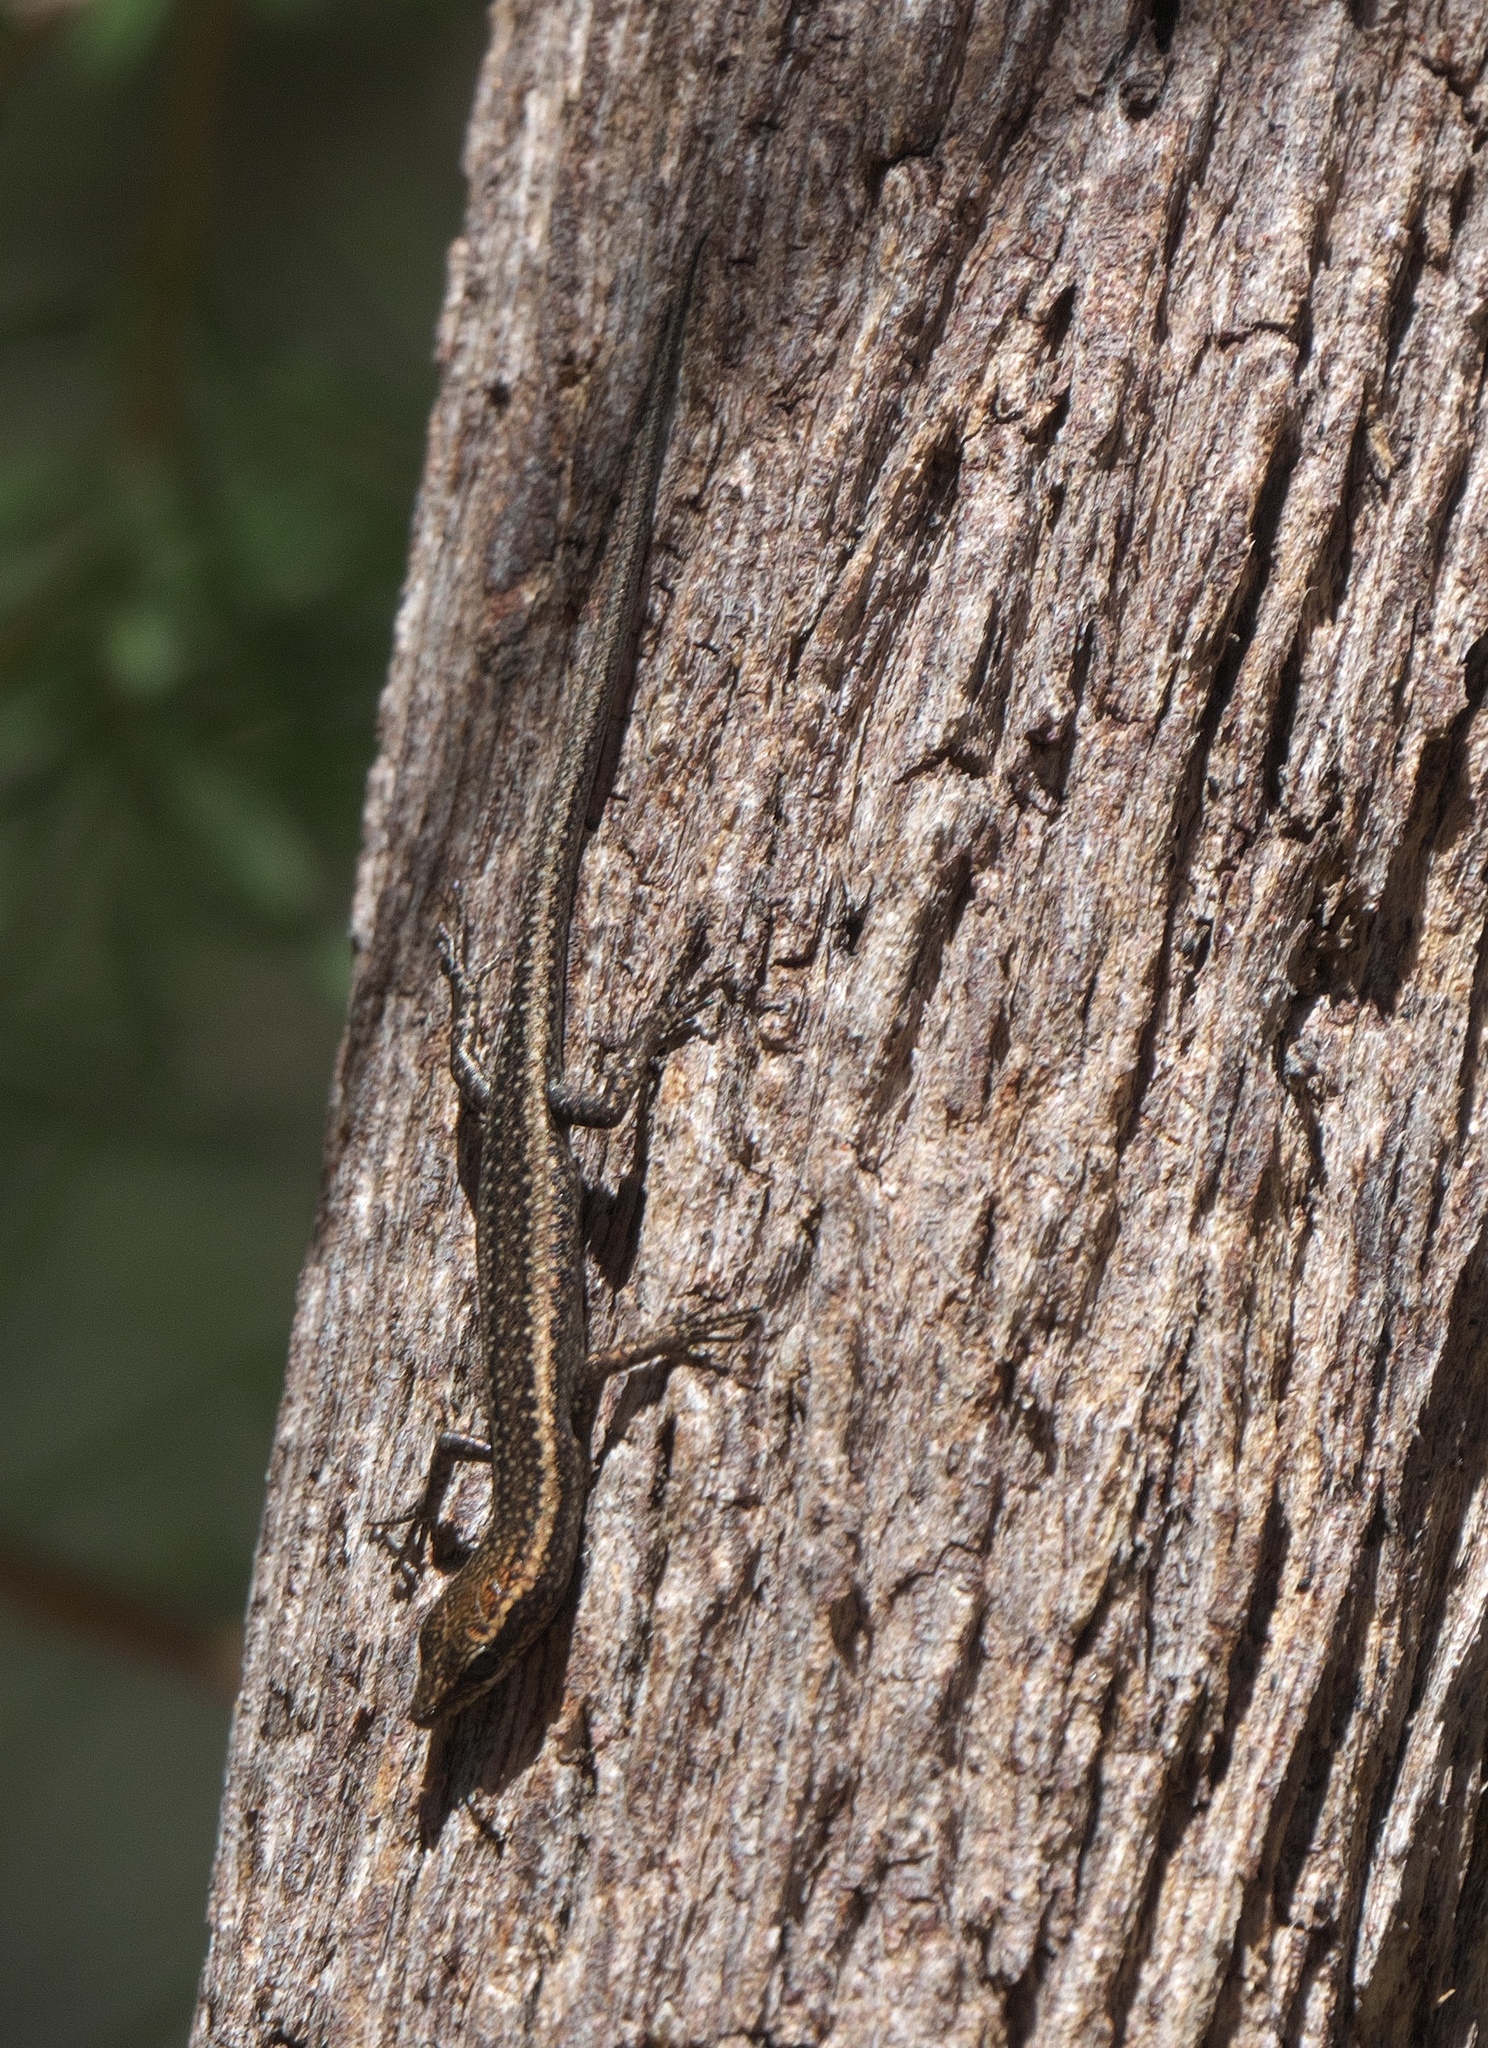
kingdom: Animalia
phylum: Chordata
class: Squamata
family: Scincidae
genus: Cryptoblepharus
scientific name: Cryptoblepharus buchananii
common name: Buchanan's snake-eyed skink
